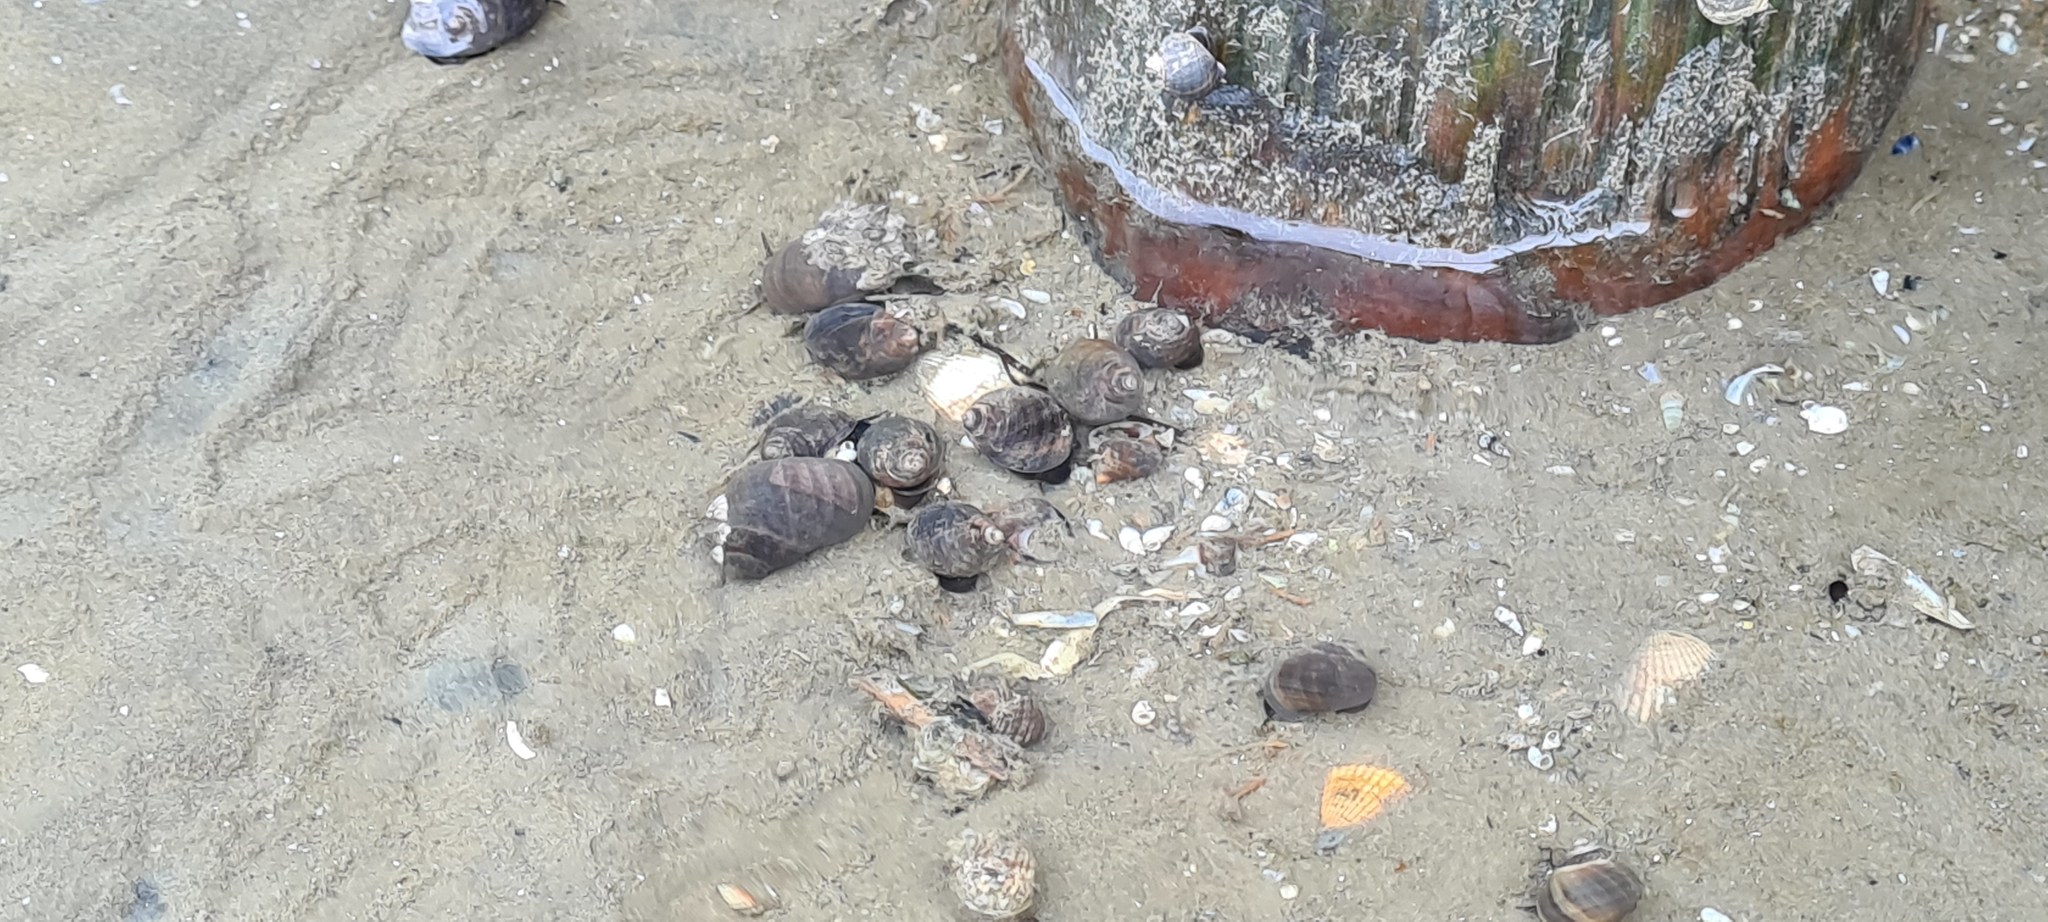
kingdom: Animalia
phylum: Mollusca
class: Gastropoda
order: Littorinimorpha
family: Littorinidae
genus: Littorina
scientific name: Littorina littorea
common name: Common periwinkle
